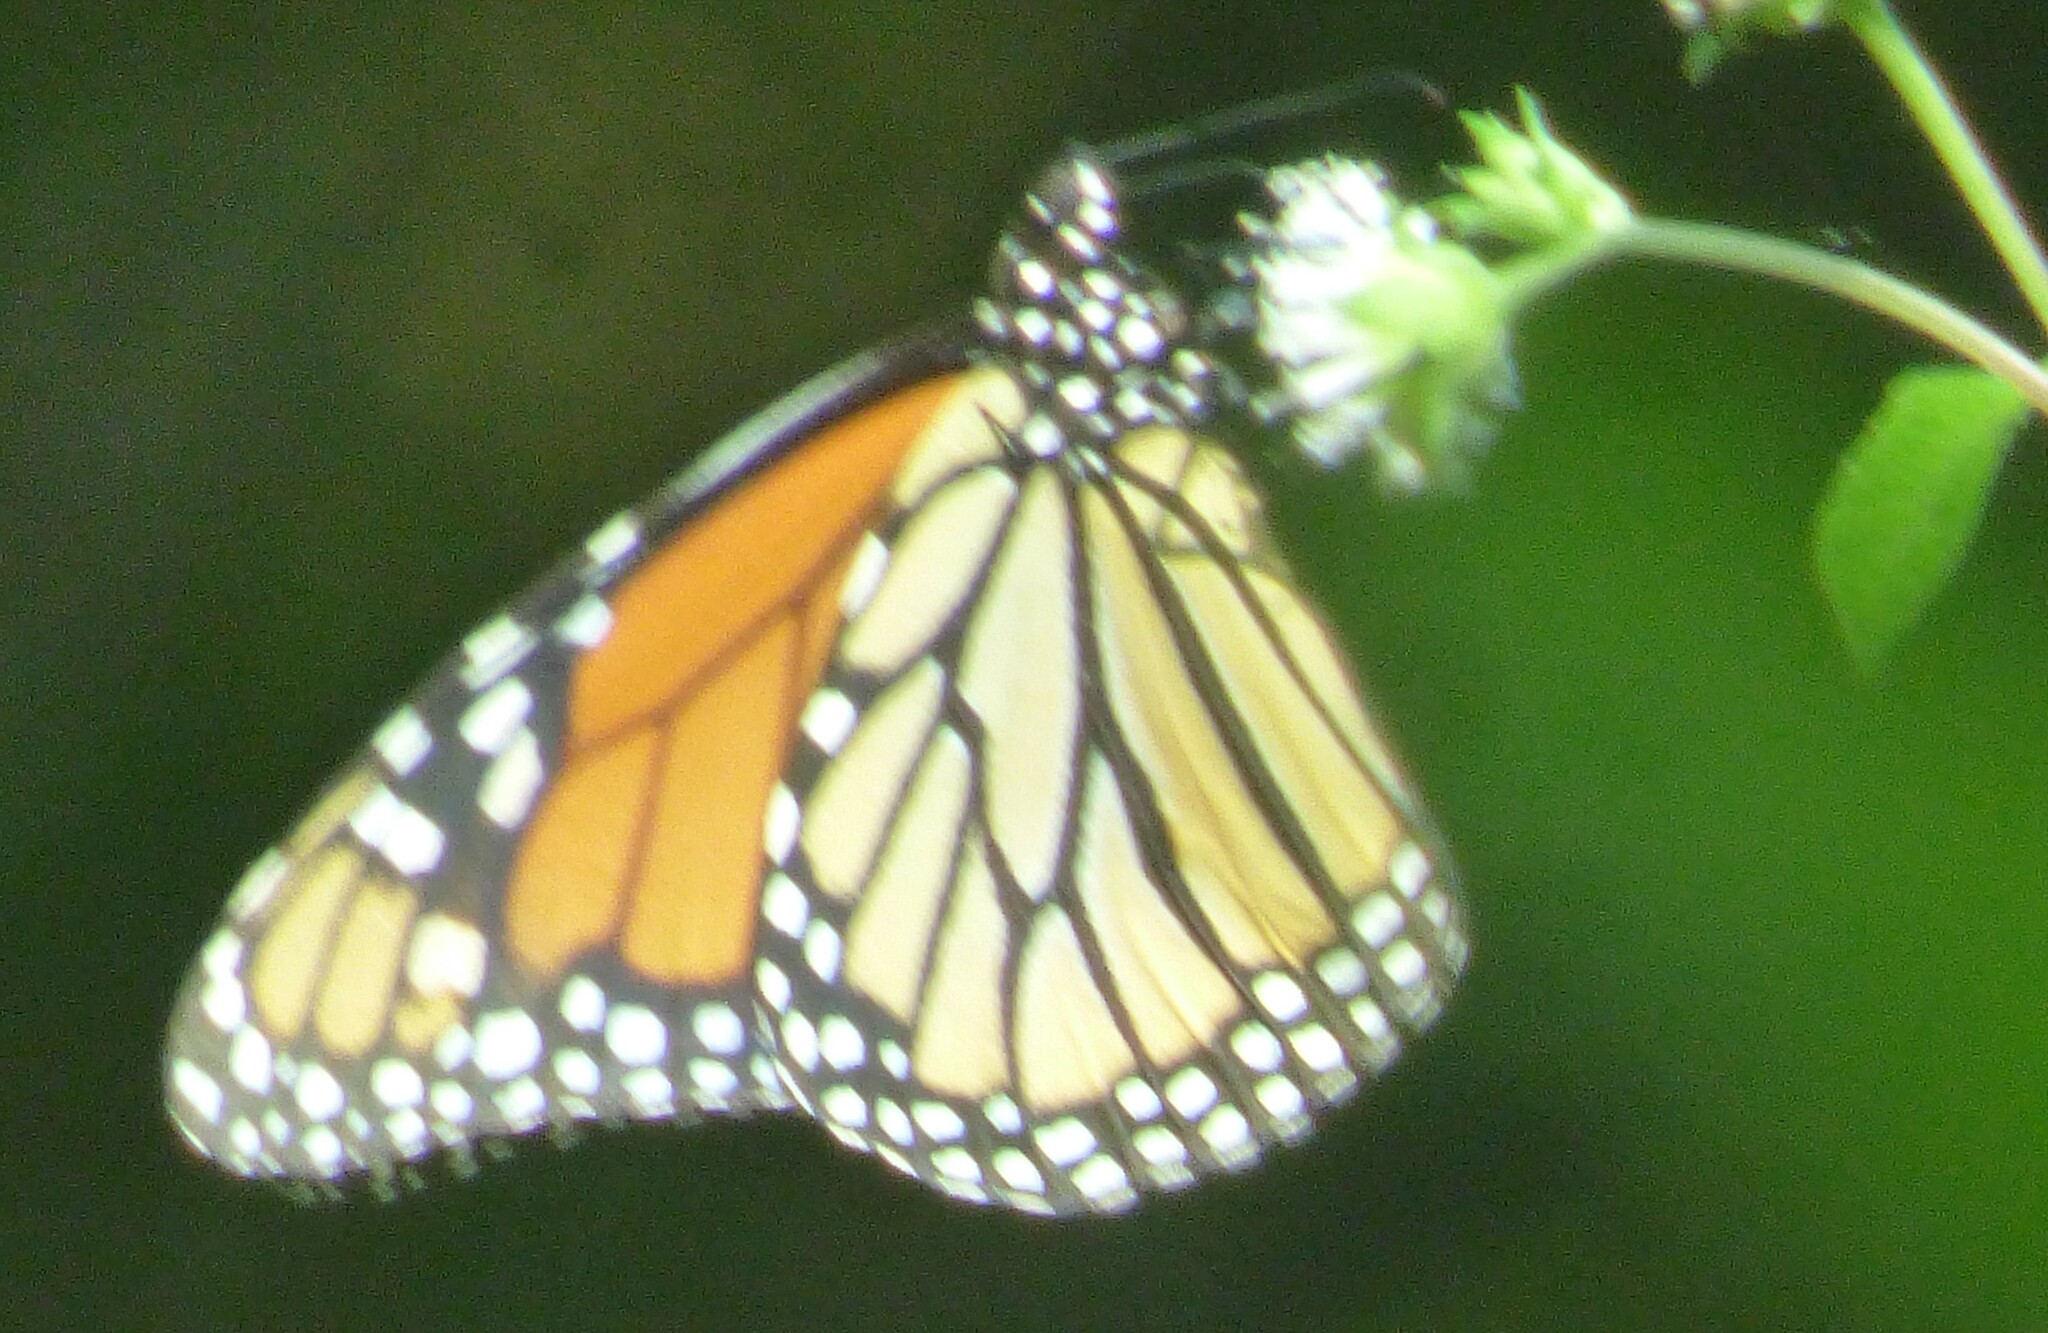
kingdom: Animalia
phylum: Arthropoda
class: Insecta
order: Lepidoptera
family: Nymphalidae
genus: Danaus
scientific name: Danaus plexippus
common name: Monarch
